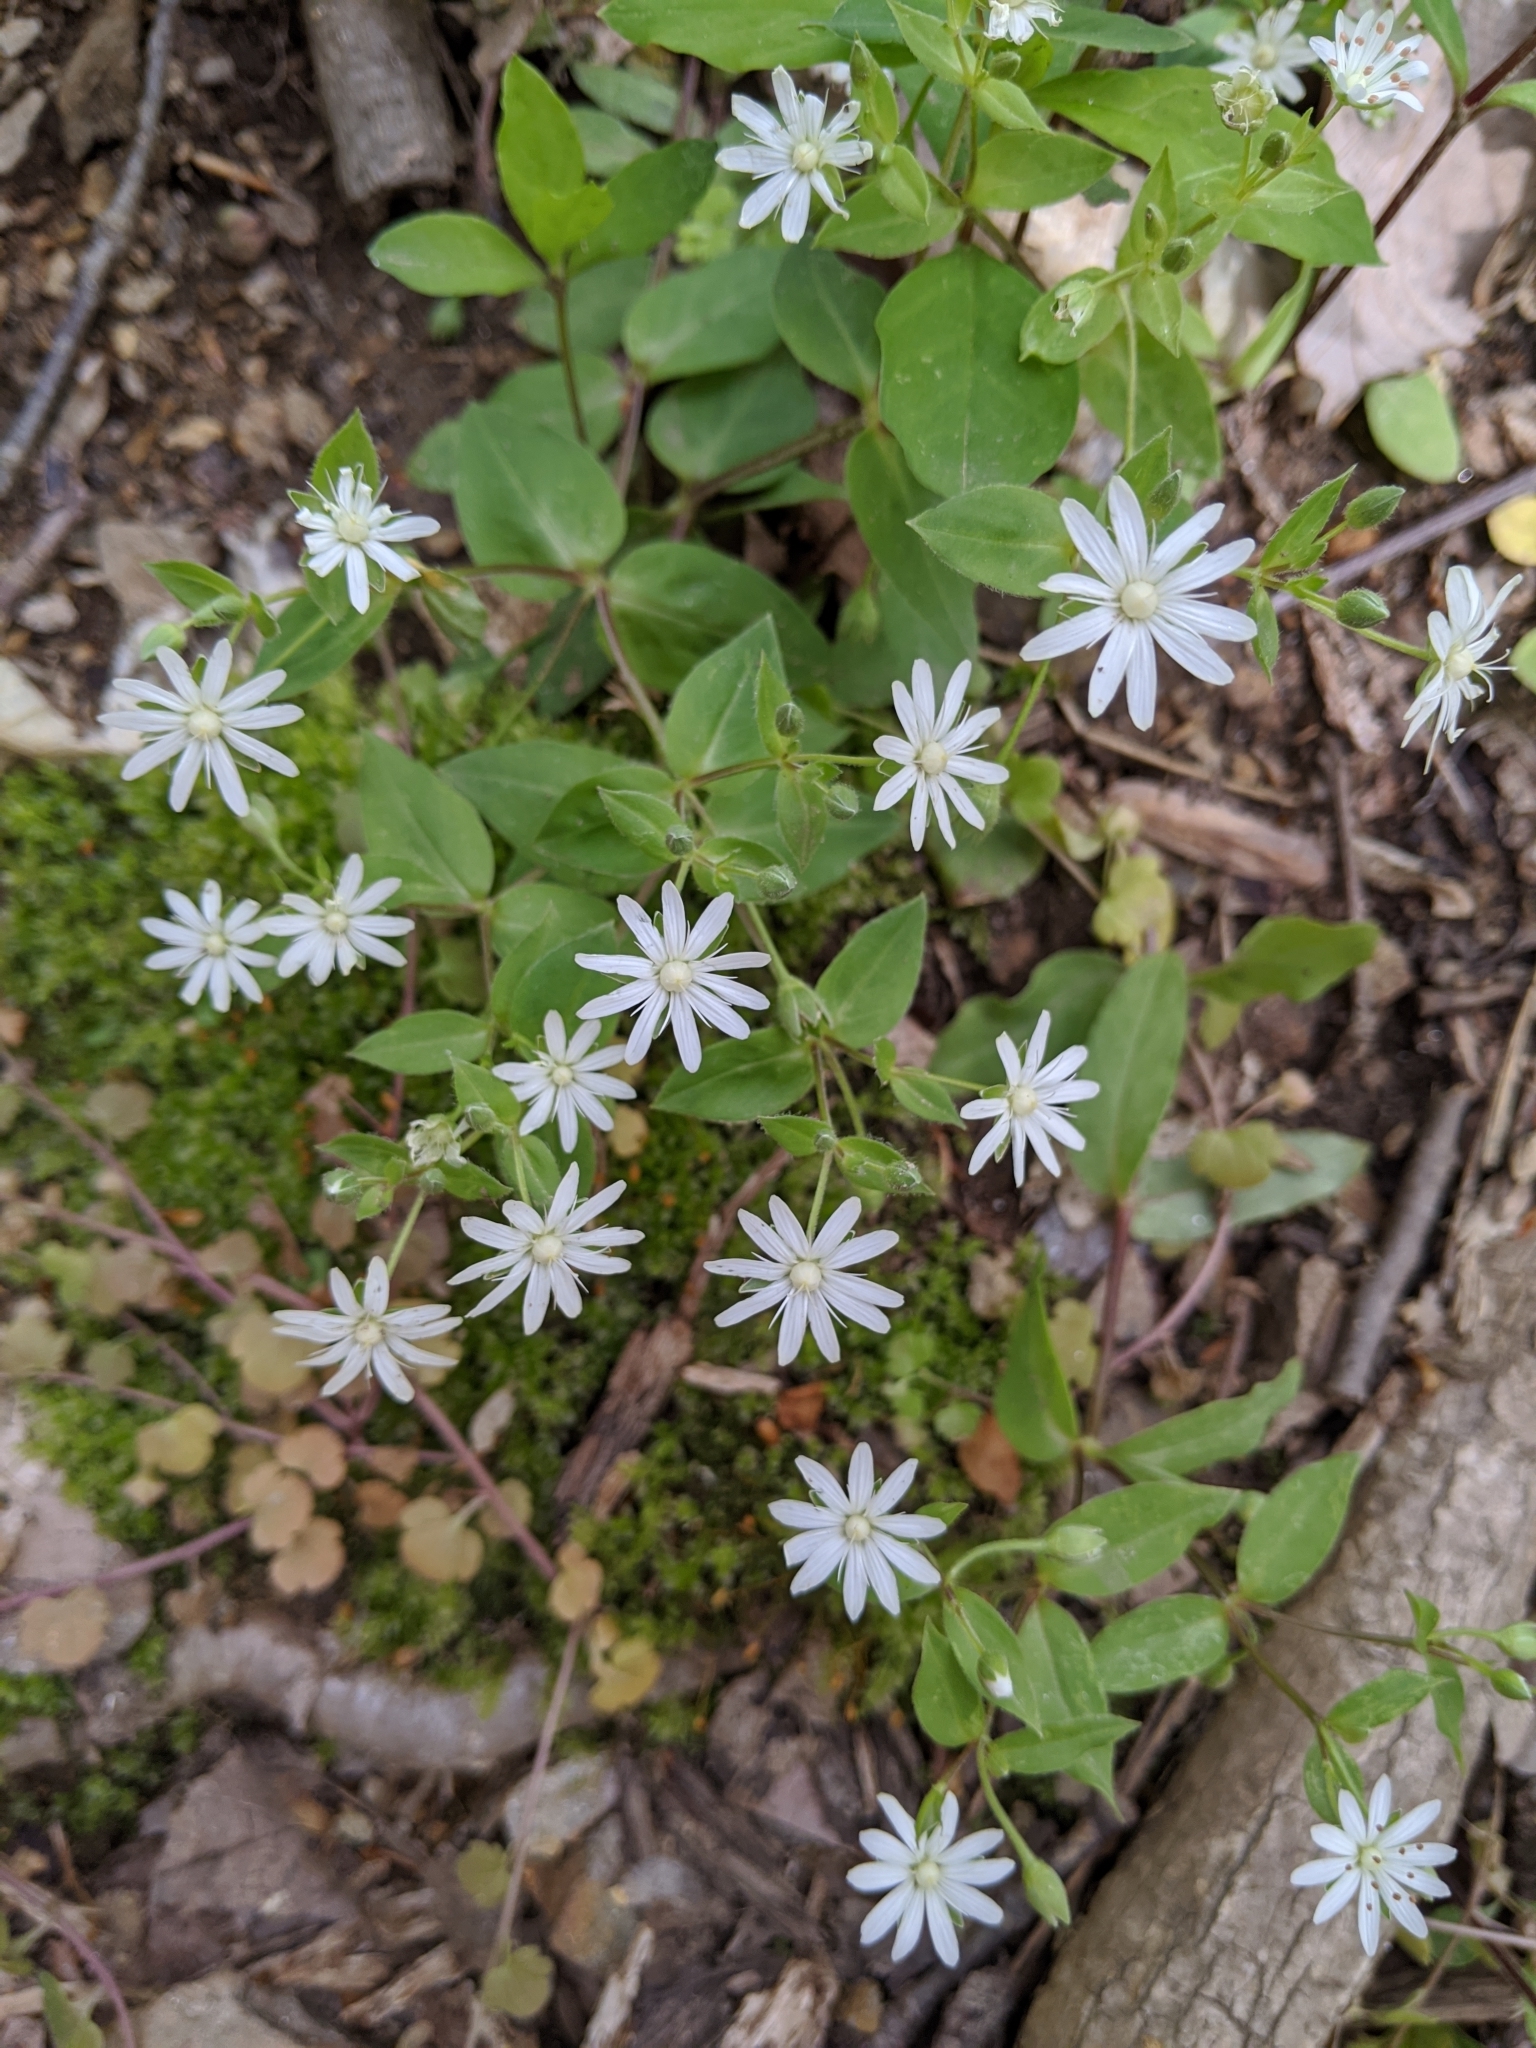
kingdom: Plantae
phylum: Tracheophyta
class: Magnoliopsida
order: Caryophyllales
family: Caryophyllaceae
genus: Stellaria
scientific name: Stellaria pubera
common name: Star chickweed
